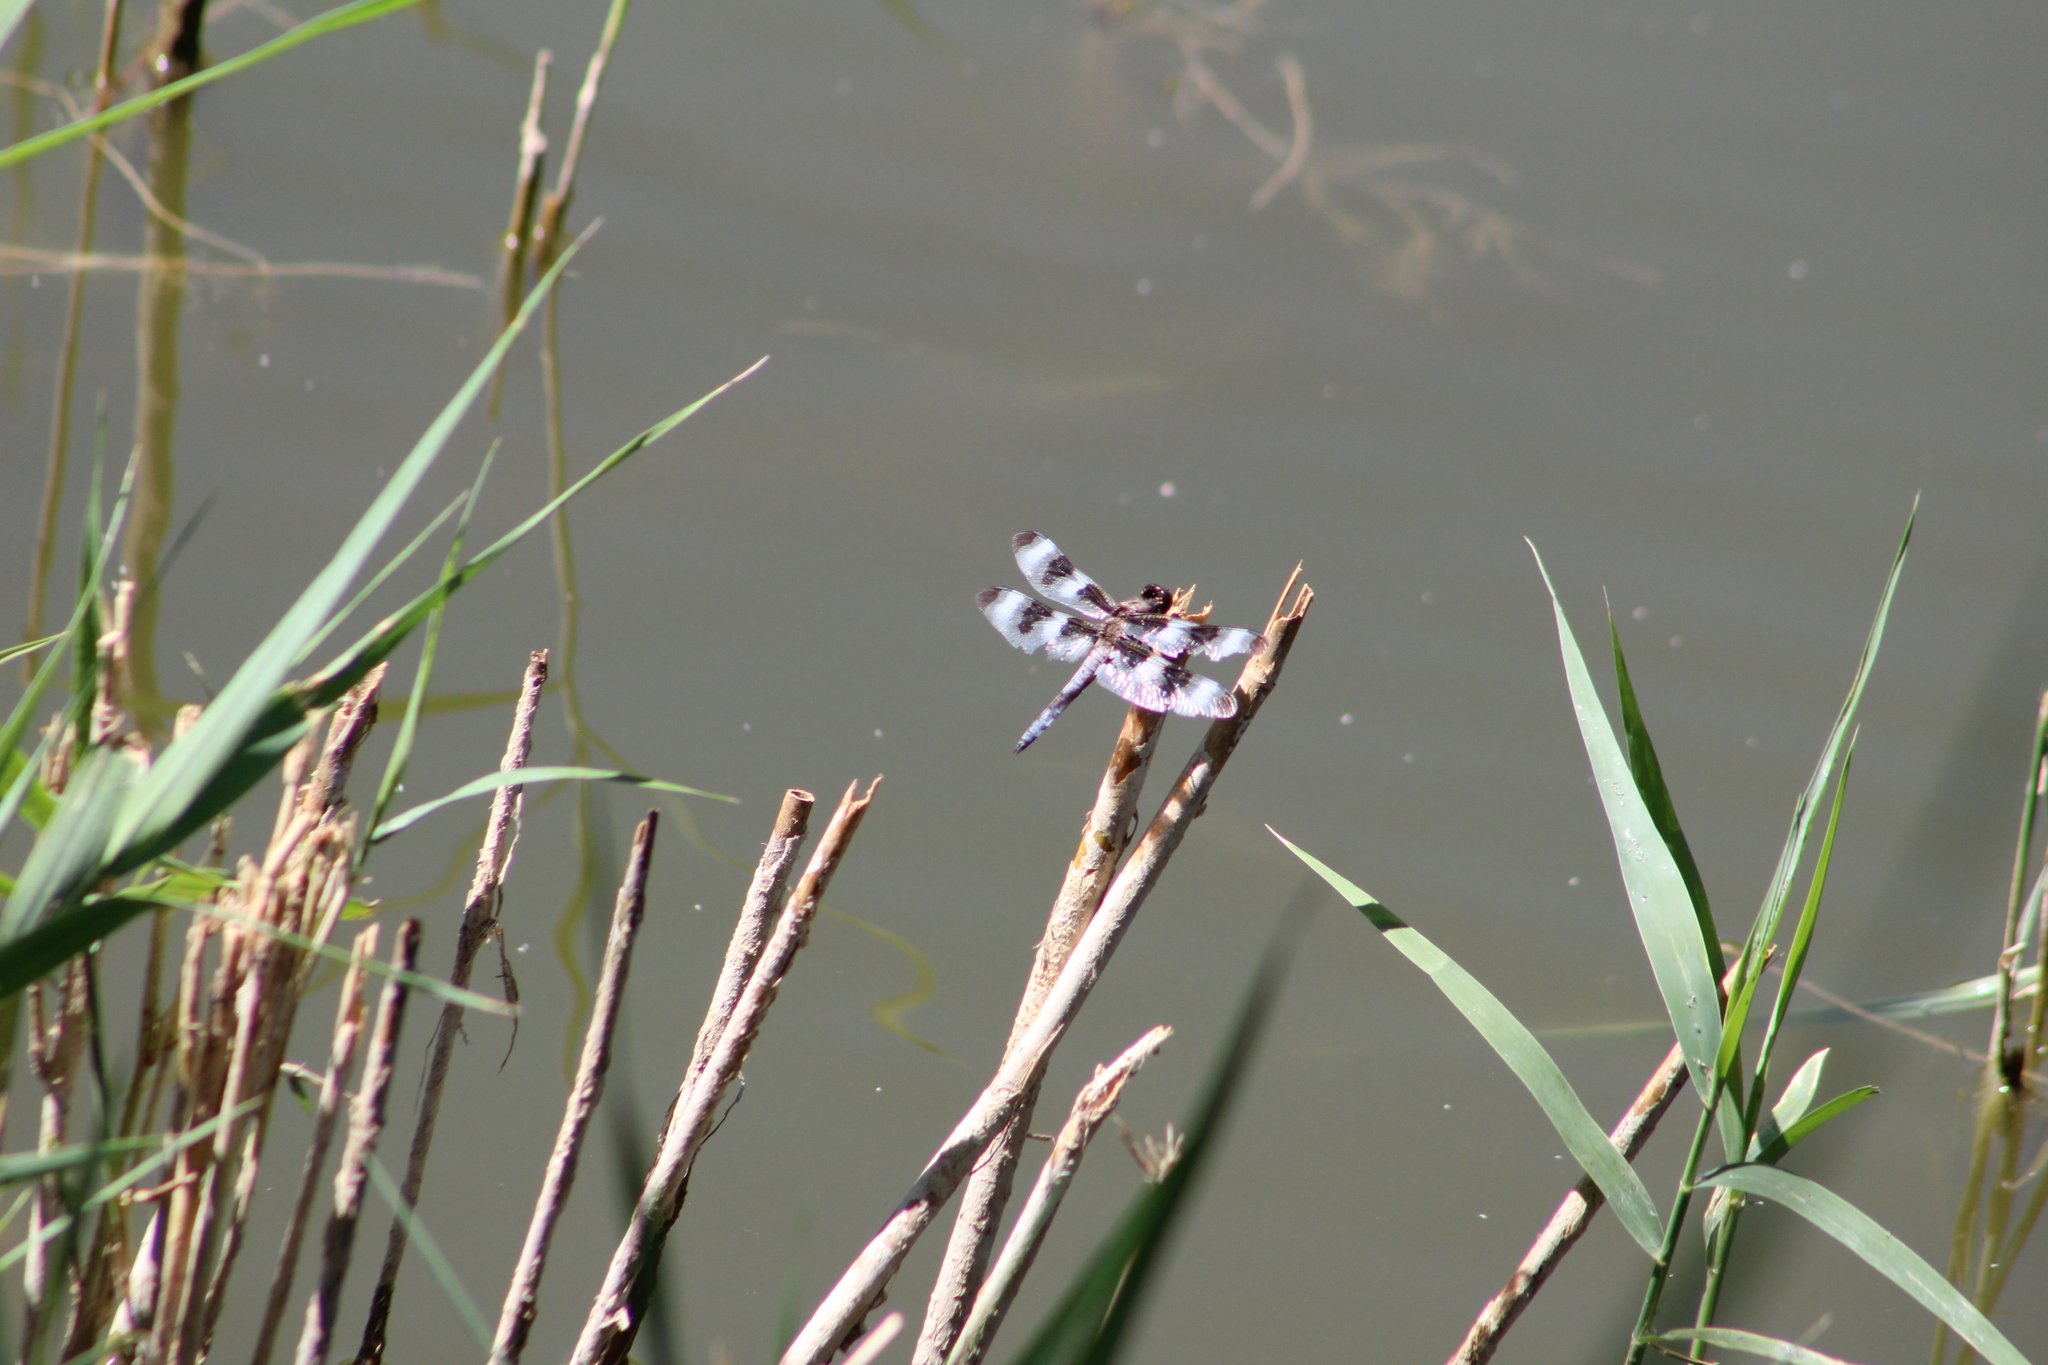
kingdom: Animalia
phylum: Arthropoda
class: Insecta
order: Odonata
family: Libellulidae
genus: Libellula
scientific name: Libellula pulchella
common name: Twelve-spotted skimmer
